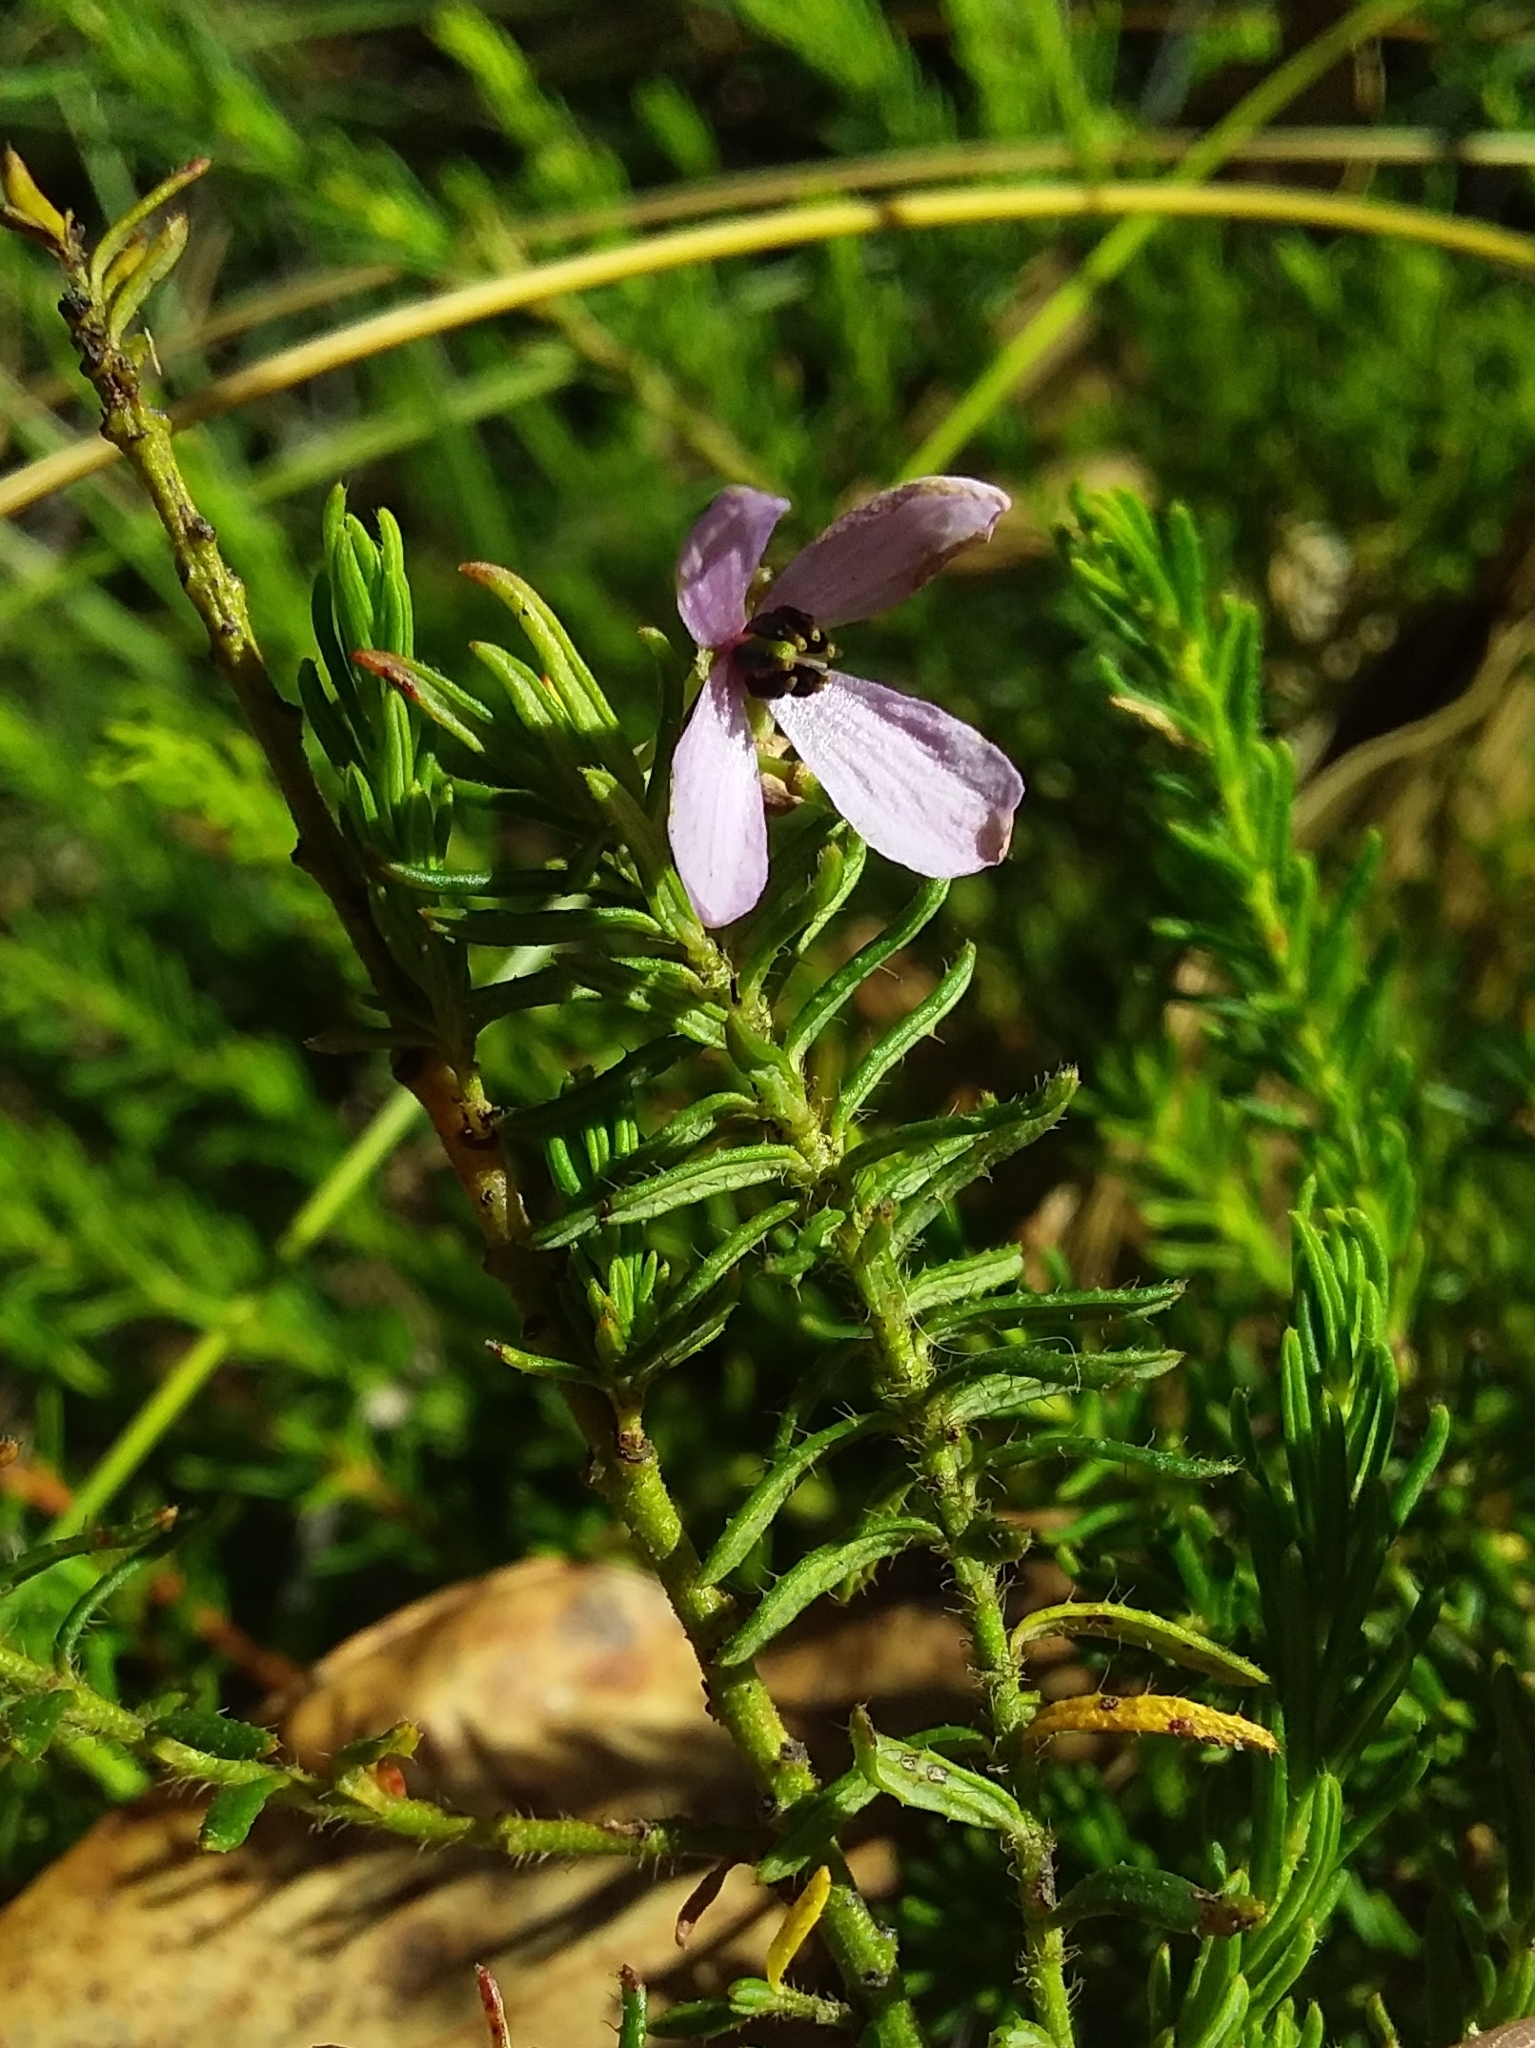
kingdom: Plantae
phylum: Tracheophyta
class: Magnoliopsida
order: Oxalidales
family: Elaeocarpaceae
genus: Tetratheca
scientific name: Tetratheca pilosa
